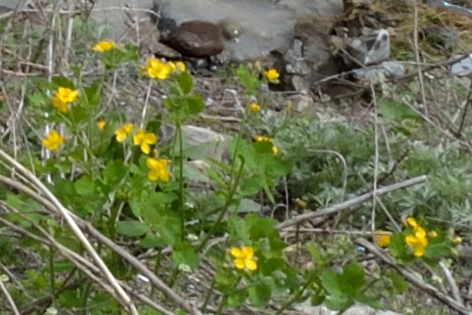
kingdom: Plantae
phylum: Tracheophyta
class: Magnoliopsida
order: Ranunculales
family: Papaveraceae
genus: Chelidonium
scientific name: Chelidonium majus
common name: Greater celandine
